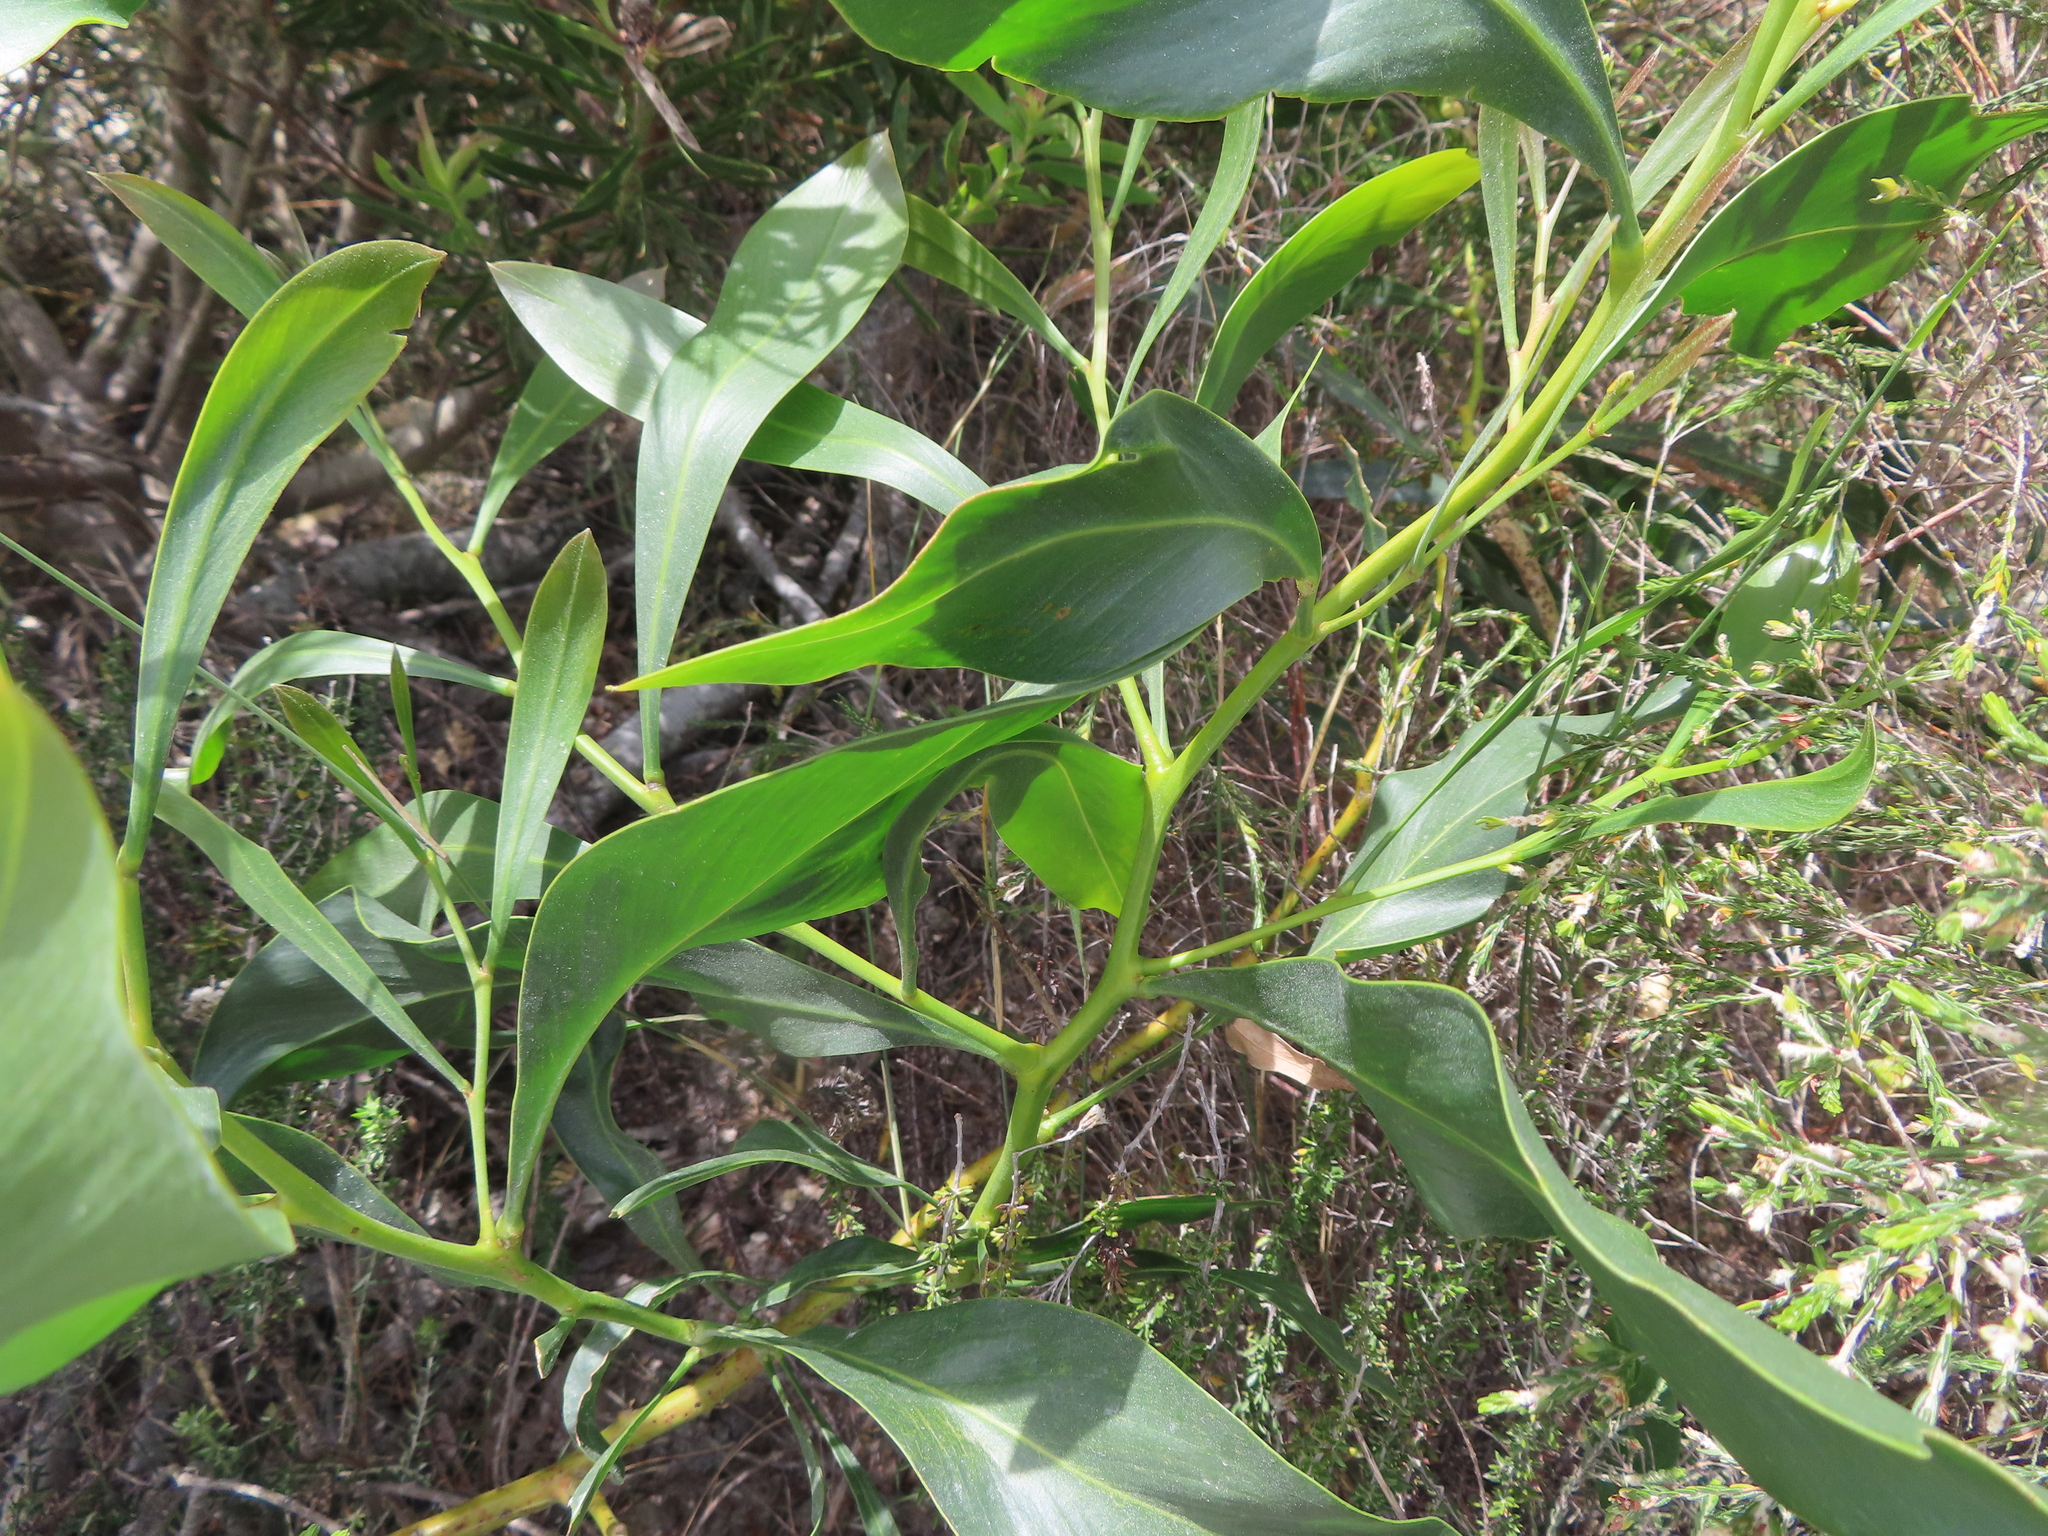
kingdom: Plantae
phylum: Tracheophyta
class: Magnoliopsida
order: Fabales
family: Fabaceae
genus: Acacia
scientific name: Acacia saligna
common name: Orange wattle
